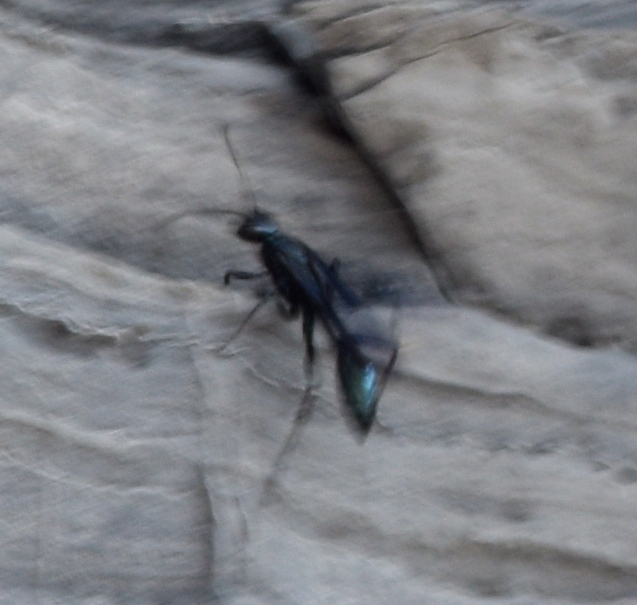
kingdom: Animalia
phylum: Arthropoda
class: Insecta
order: Hymenoptera
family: Sphecidae
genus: Chalybion
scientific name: Chalybion californicum
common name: Mud dauber
